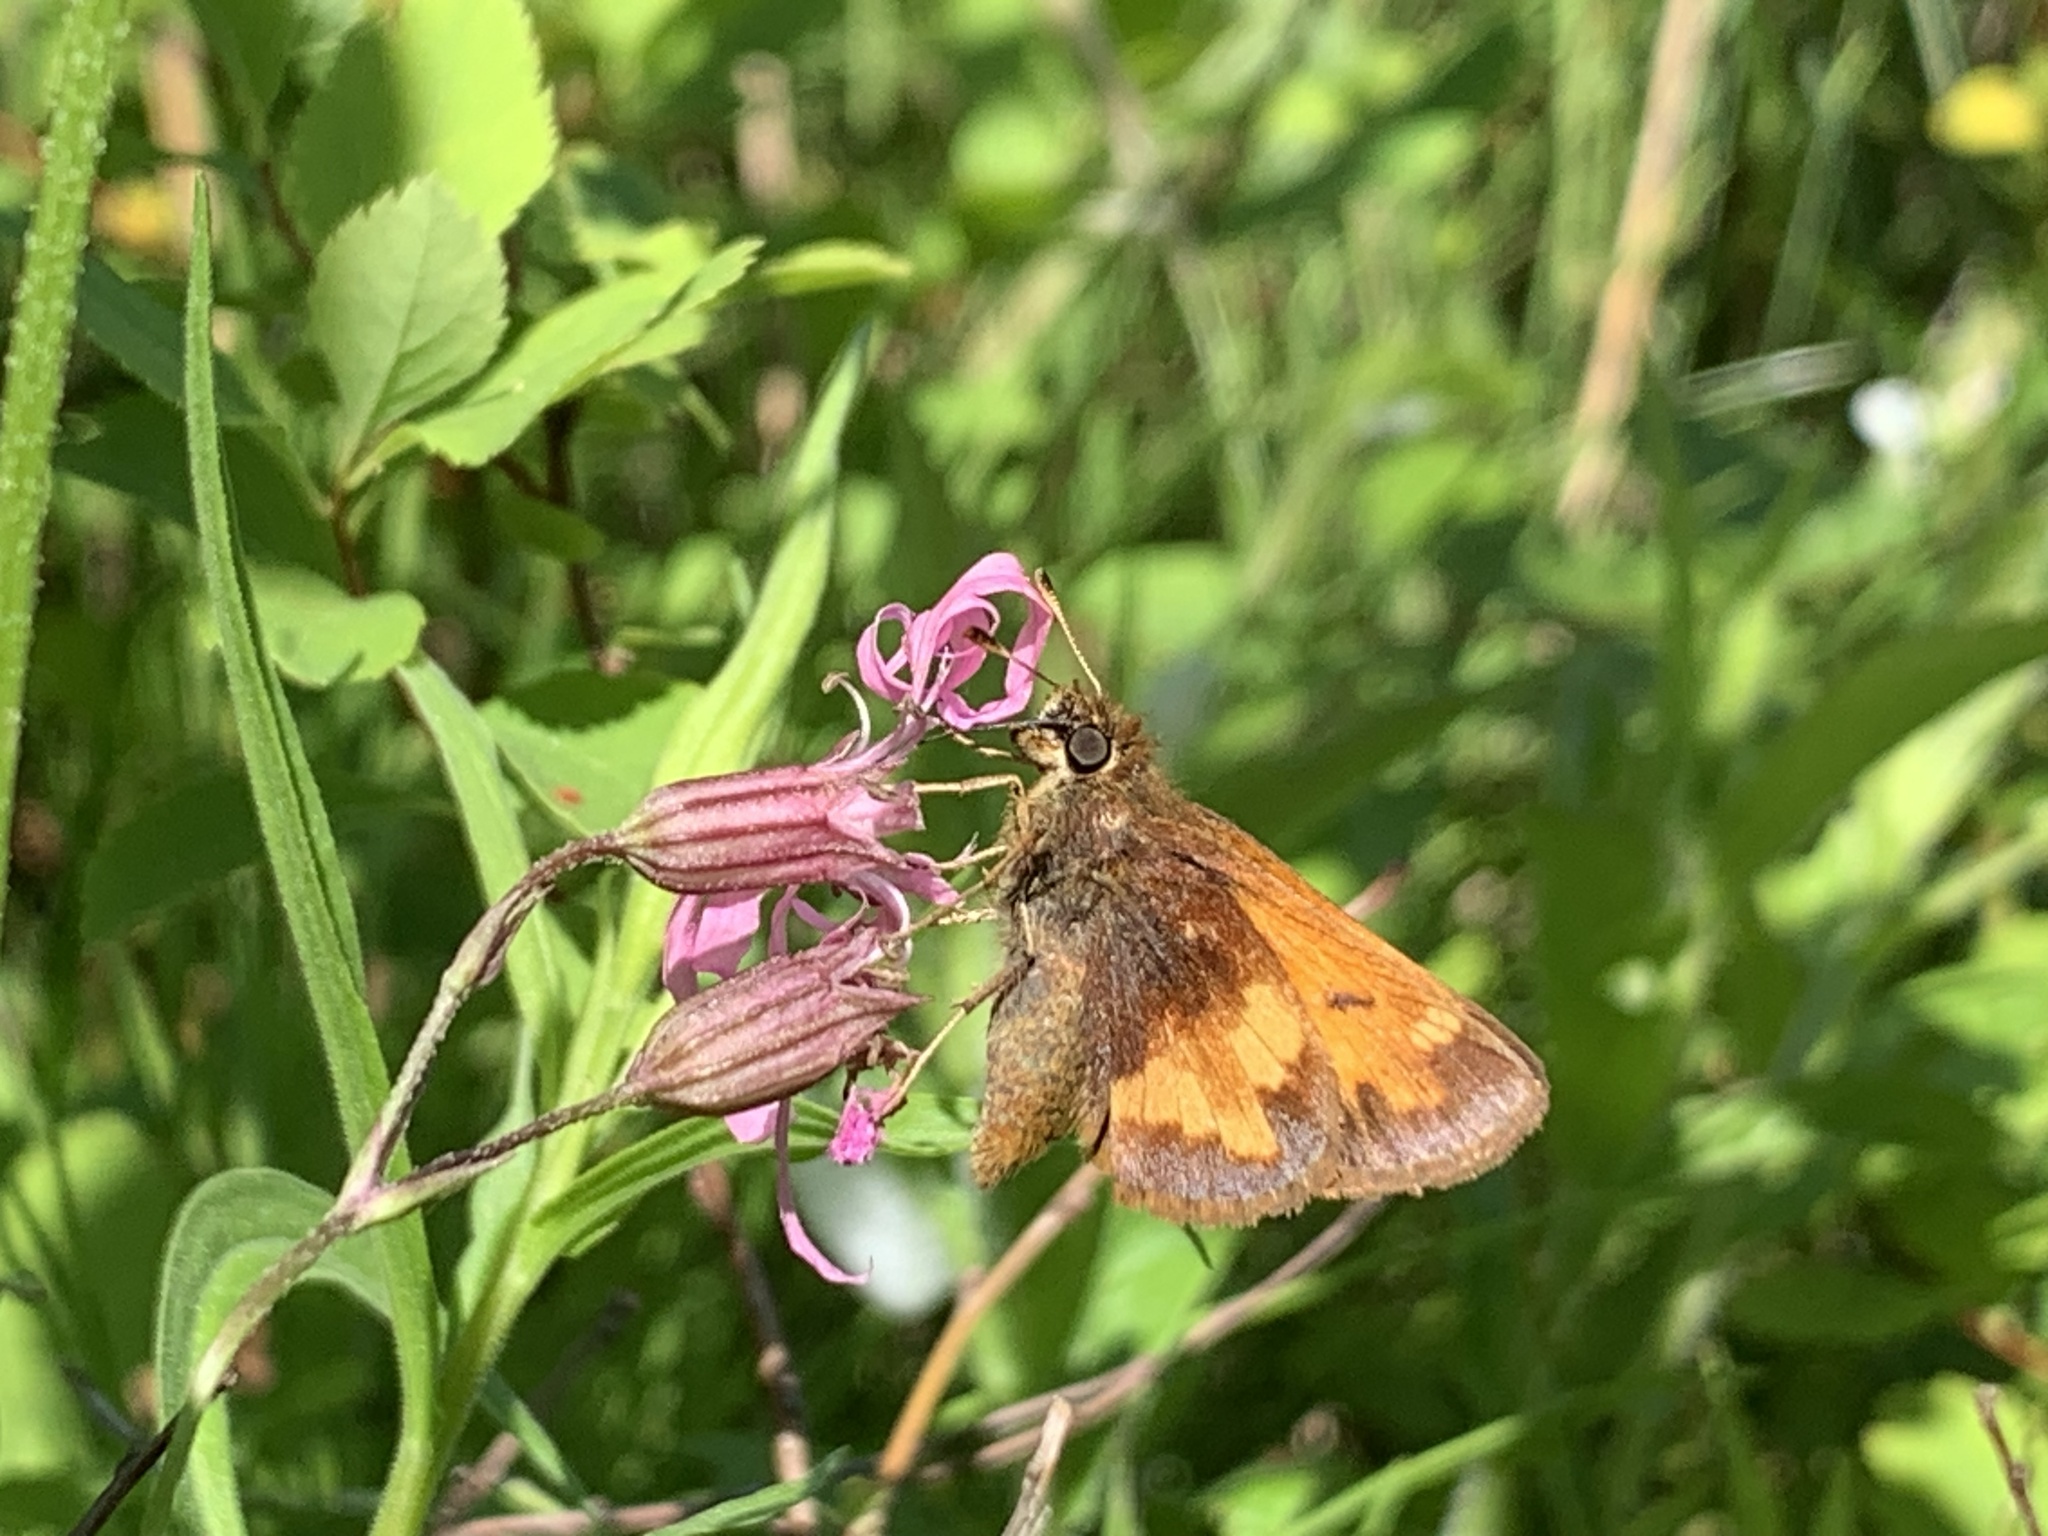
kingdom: Animalia
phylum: Arthropoda
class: Insecta
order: Lepidoptera
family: Hesperiidae
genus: Lon
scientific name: Lon hobomok
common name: Hobomok skipper
